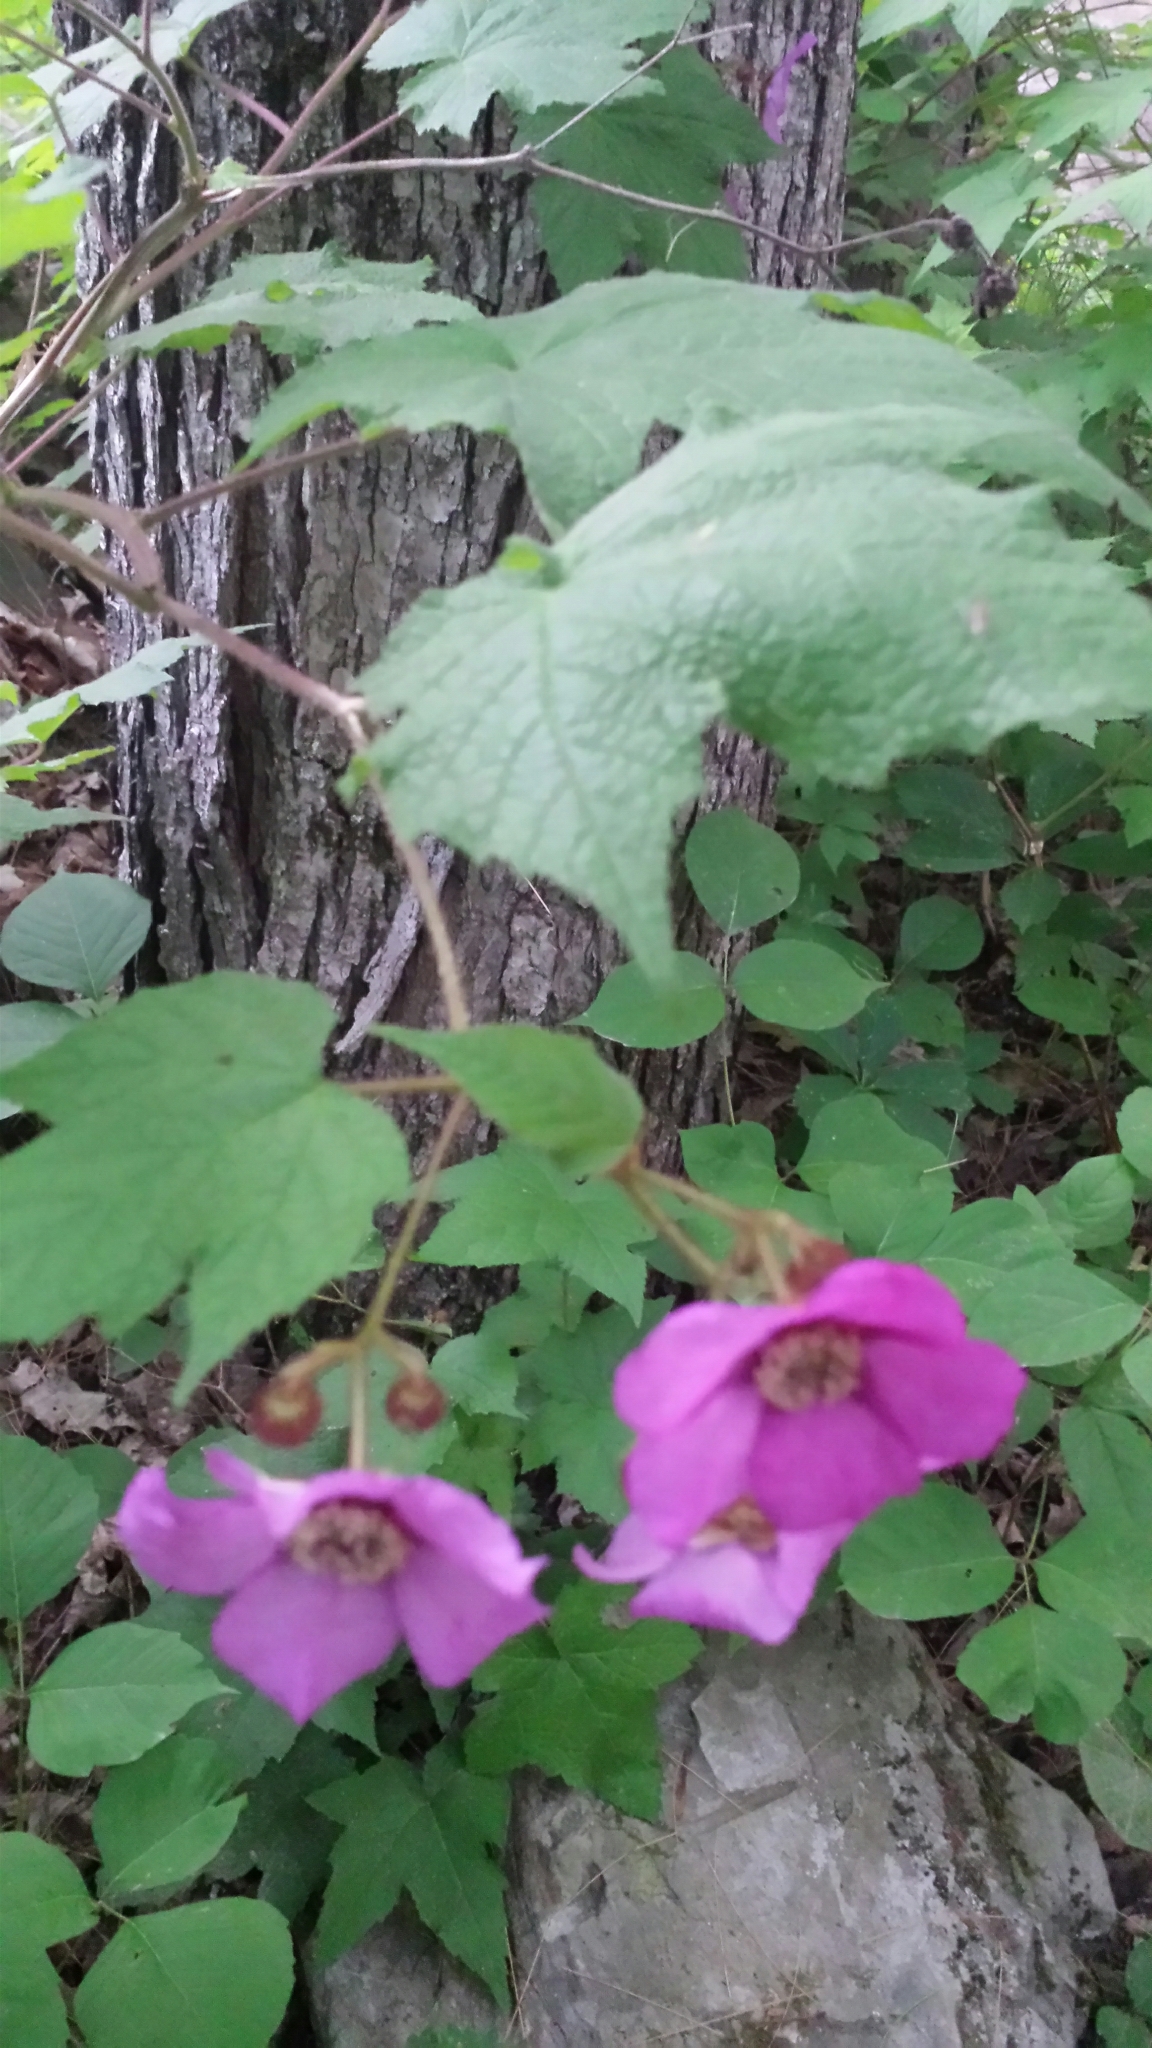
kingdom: Plantae
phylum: Tracheophyta
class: Magnoliopsida
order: Rosales
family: Rosaceae
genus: Rubus
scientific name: Rubus odoratus
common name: Purple-flowered raspberry
